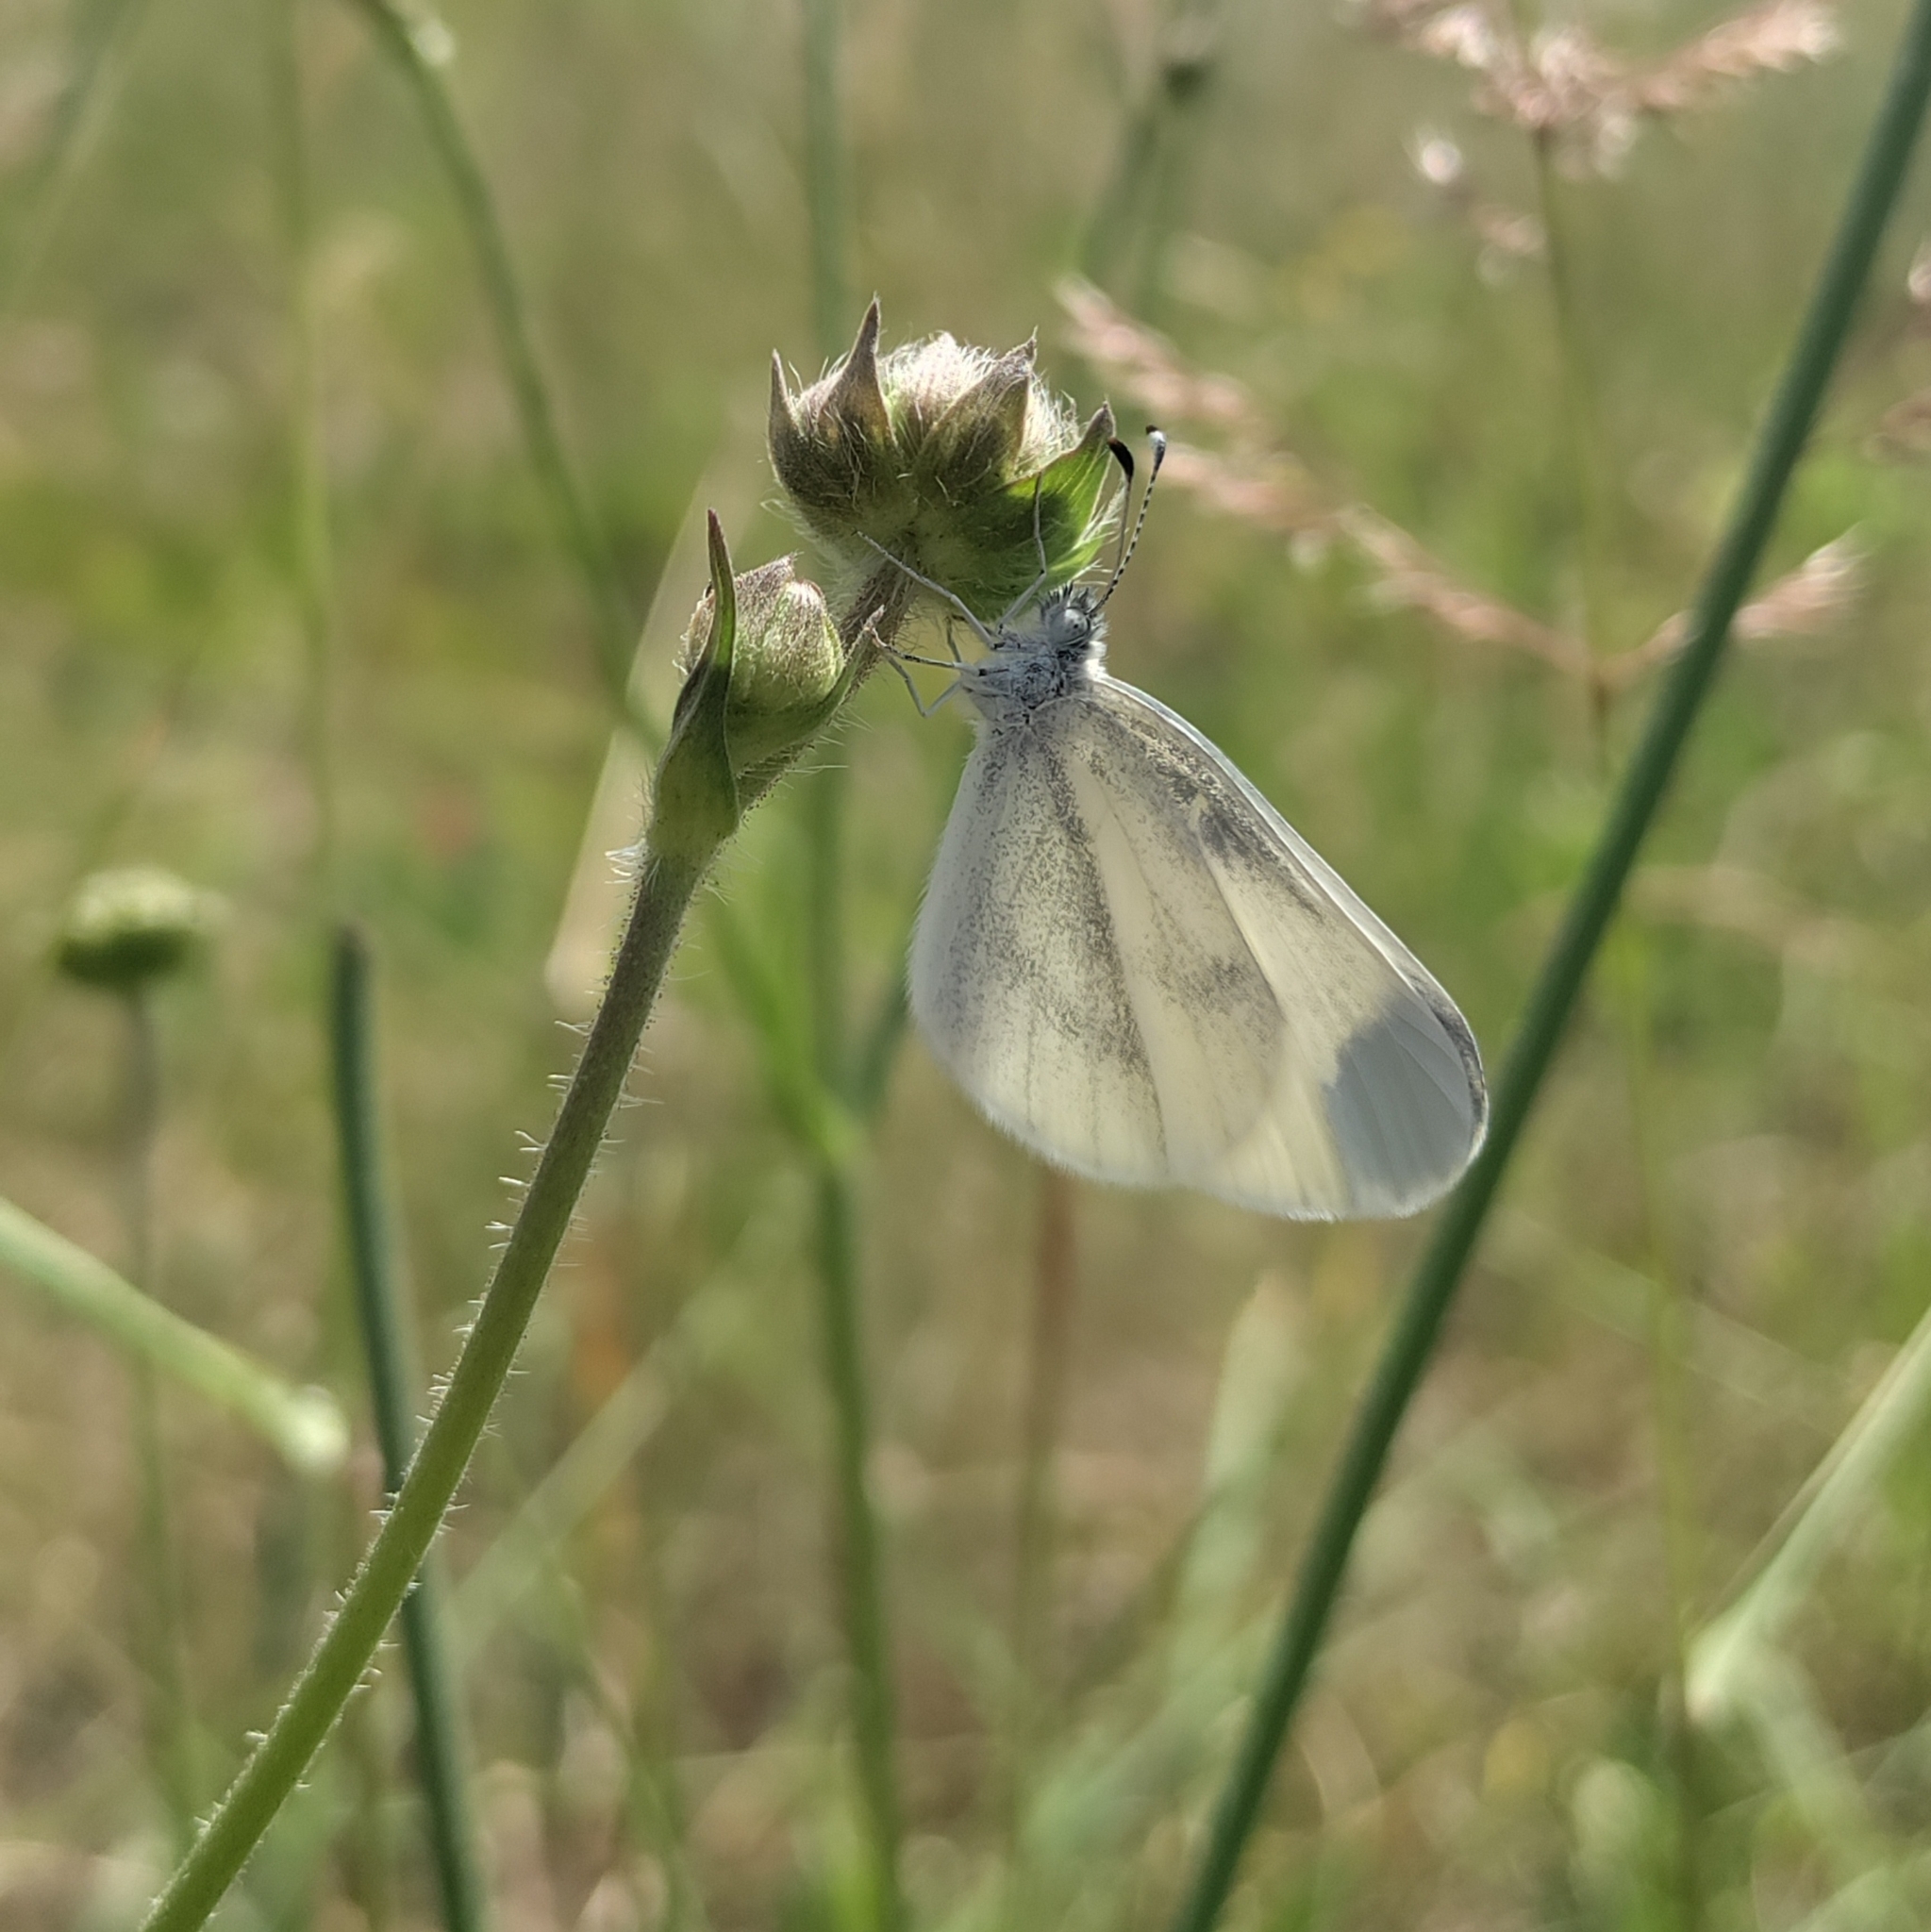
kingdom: Animalia
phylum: Arthropoda
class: Insecta
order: Lepidoptera
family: Pieridae
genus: Leptidea
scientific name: Leptidea
